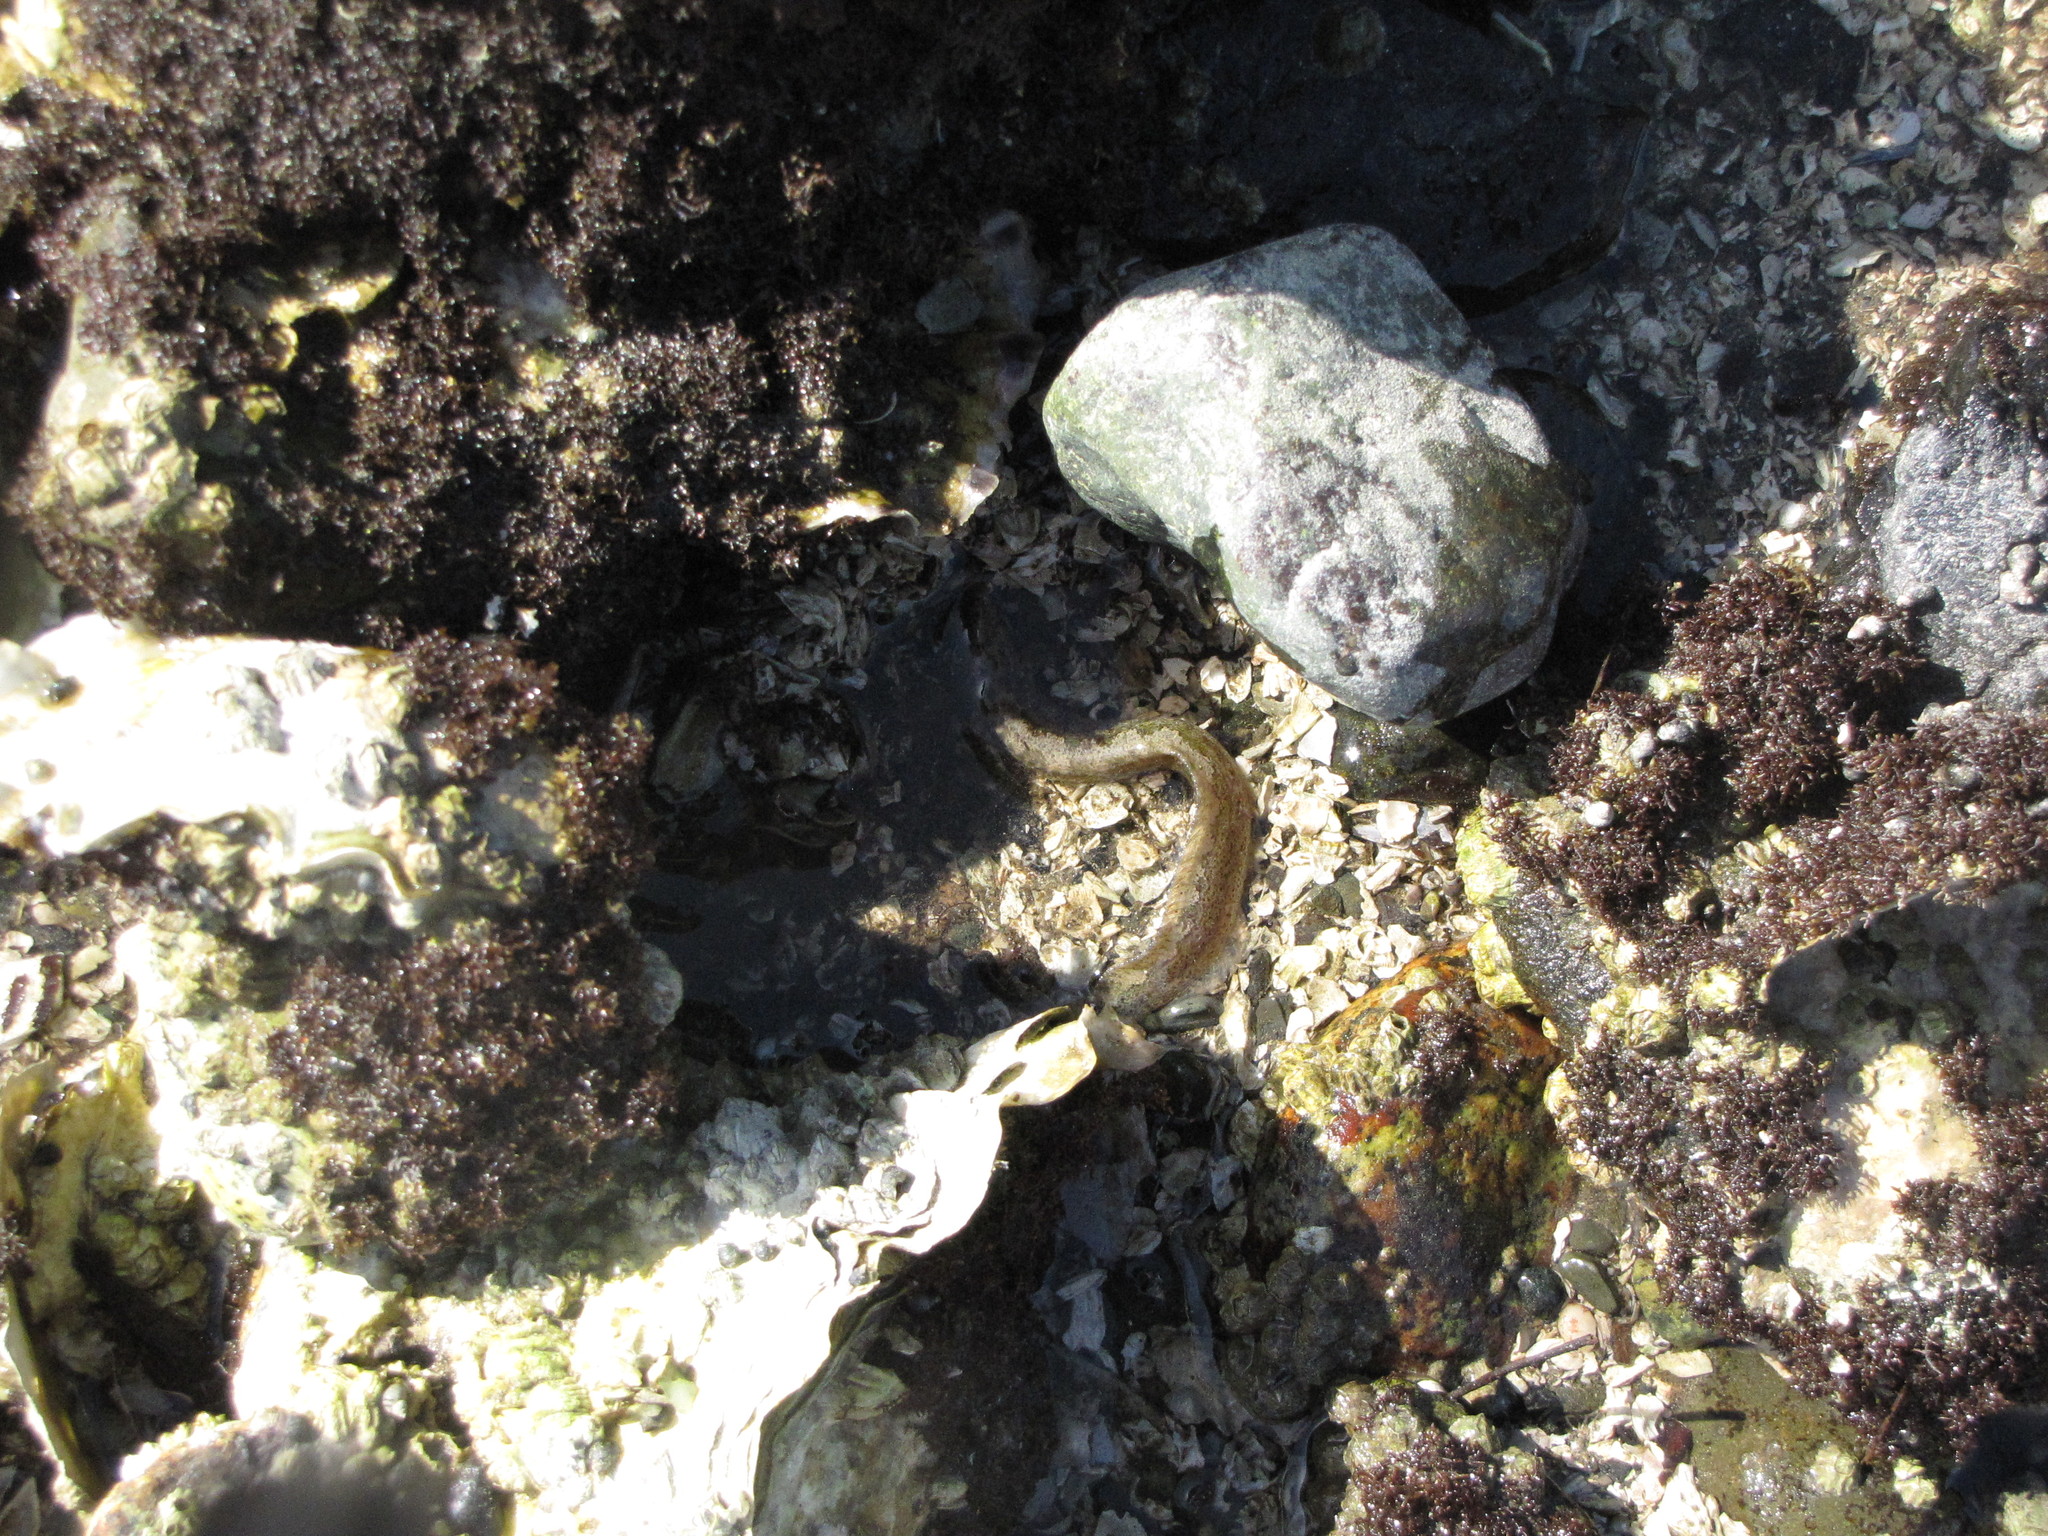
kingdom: Animalia
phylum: Chordata
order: Perciformes
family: Stichaeidae
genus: Anoplarchus
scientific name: Anoplarchus purpurescens
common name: High cockscomb
